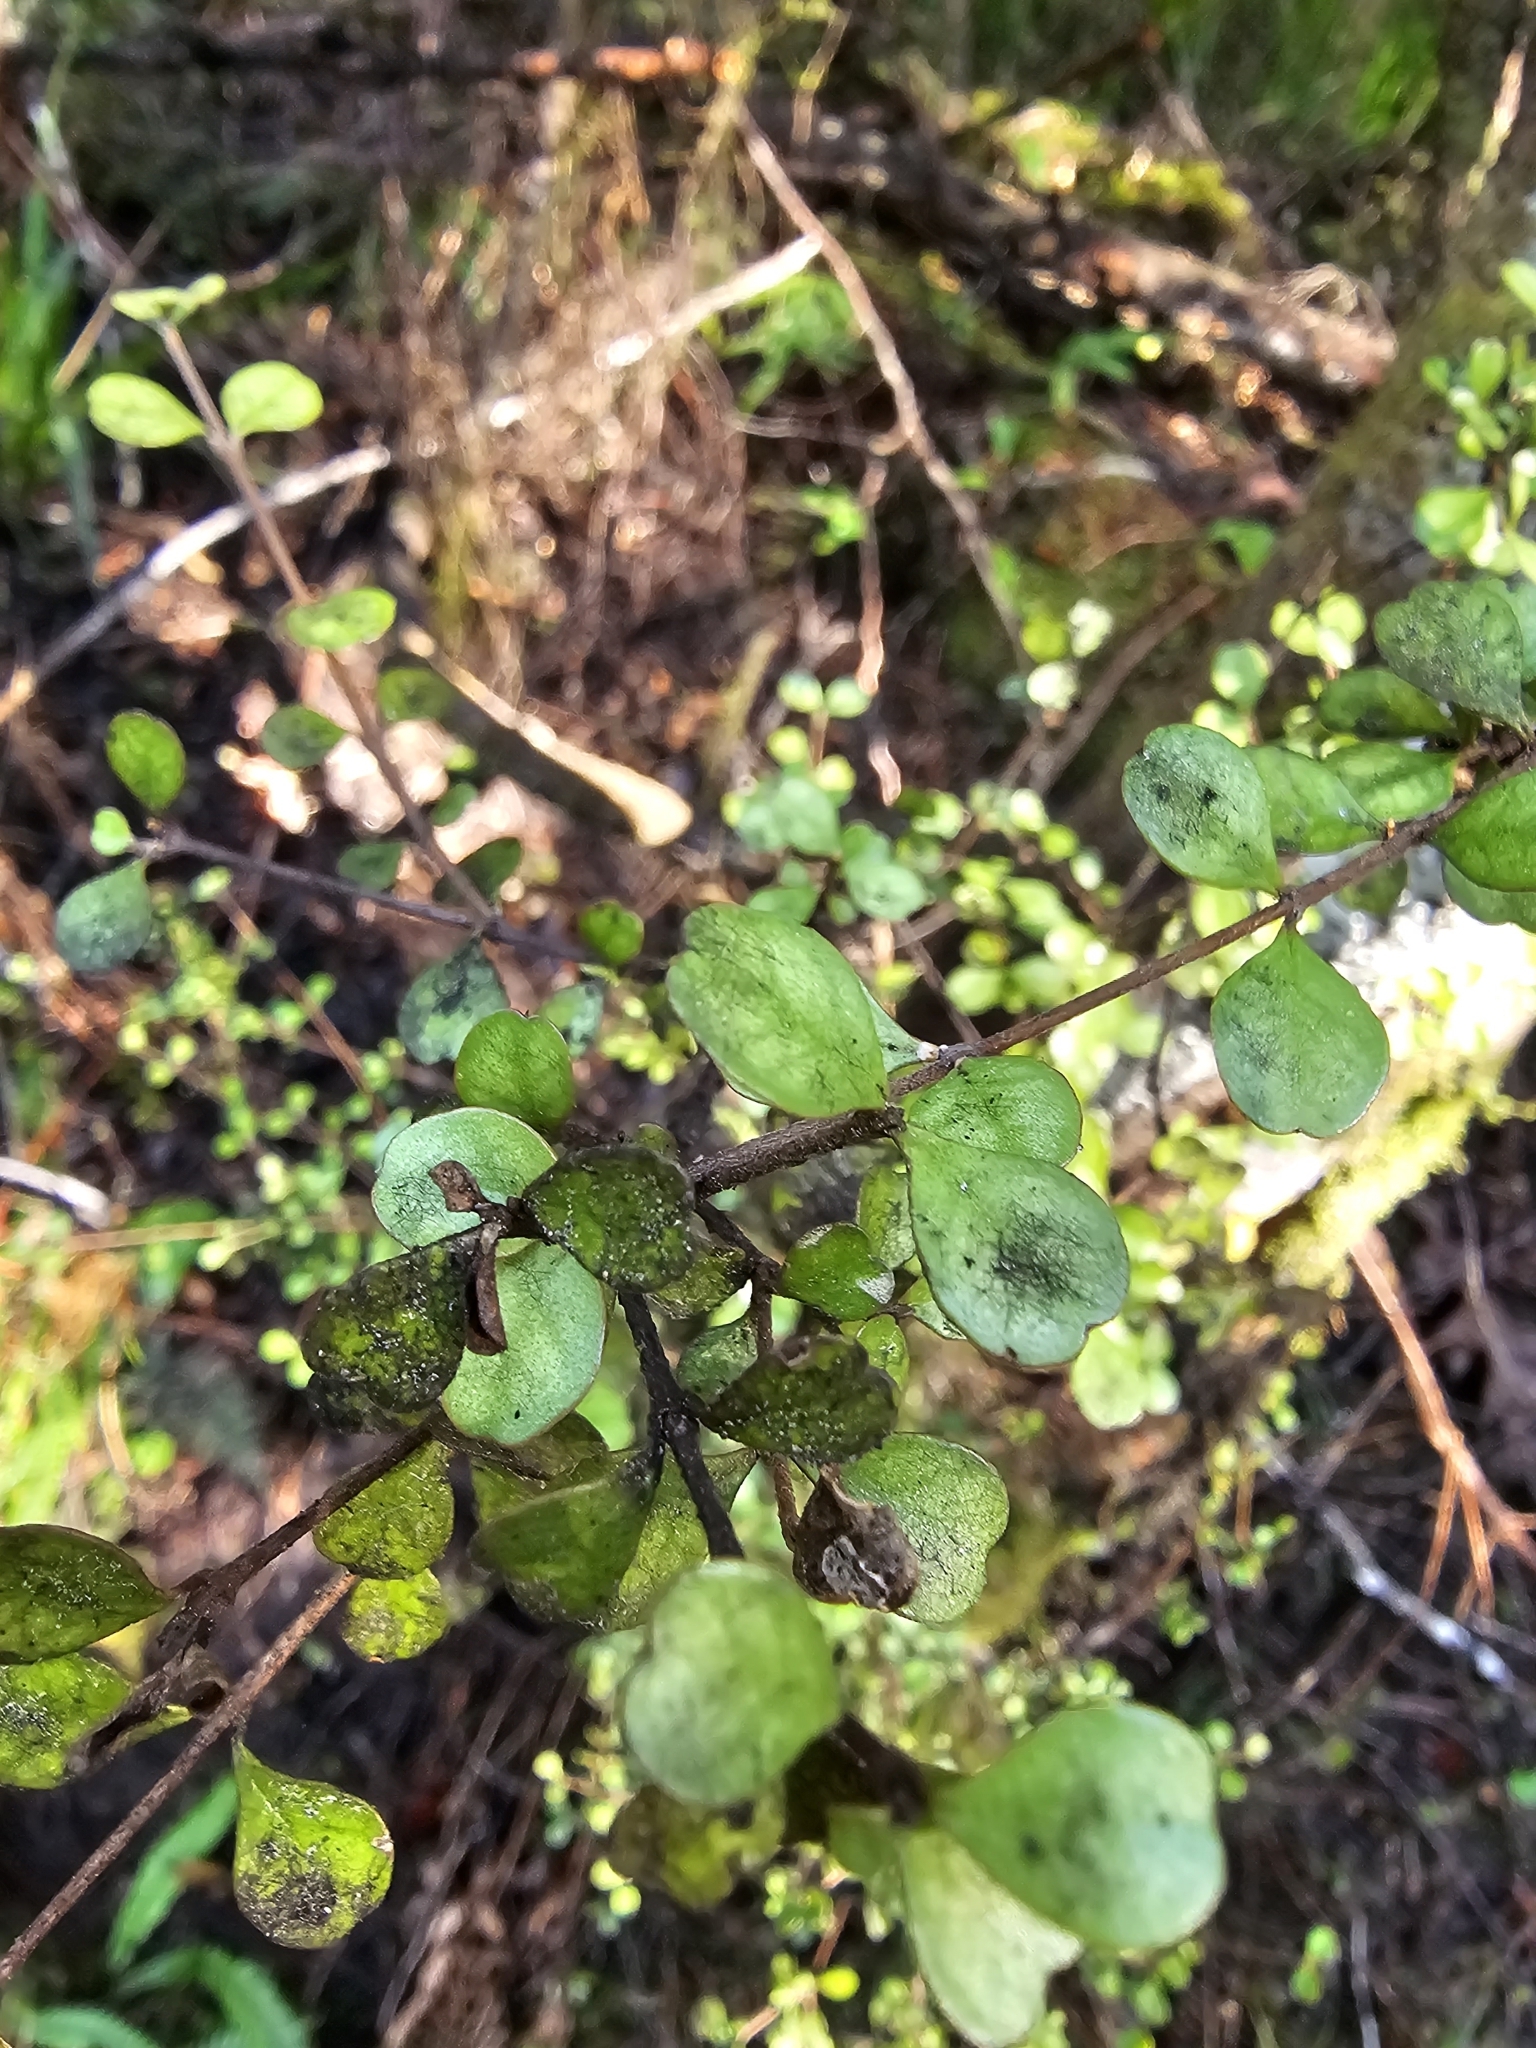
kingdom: Plantae
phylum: Tracheophyta
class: Magnoliopsida
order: Myrtales
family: Myrtaceae
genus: Lophomyrtus
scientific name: Lophomyrtus obcordata
